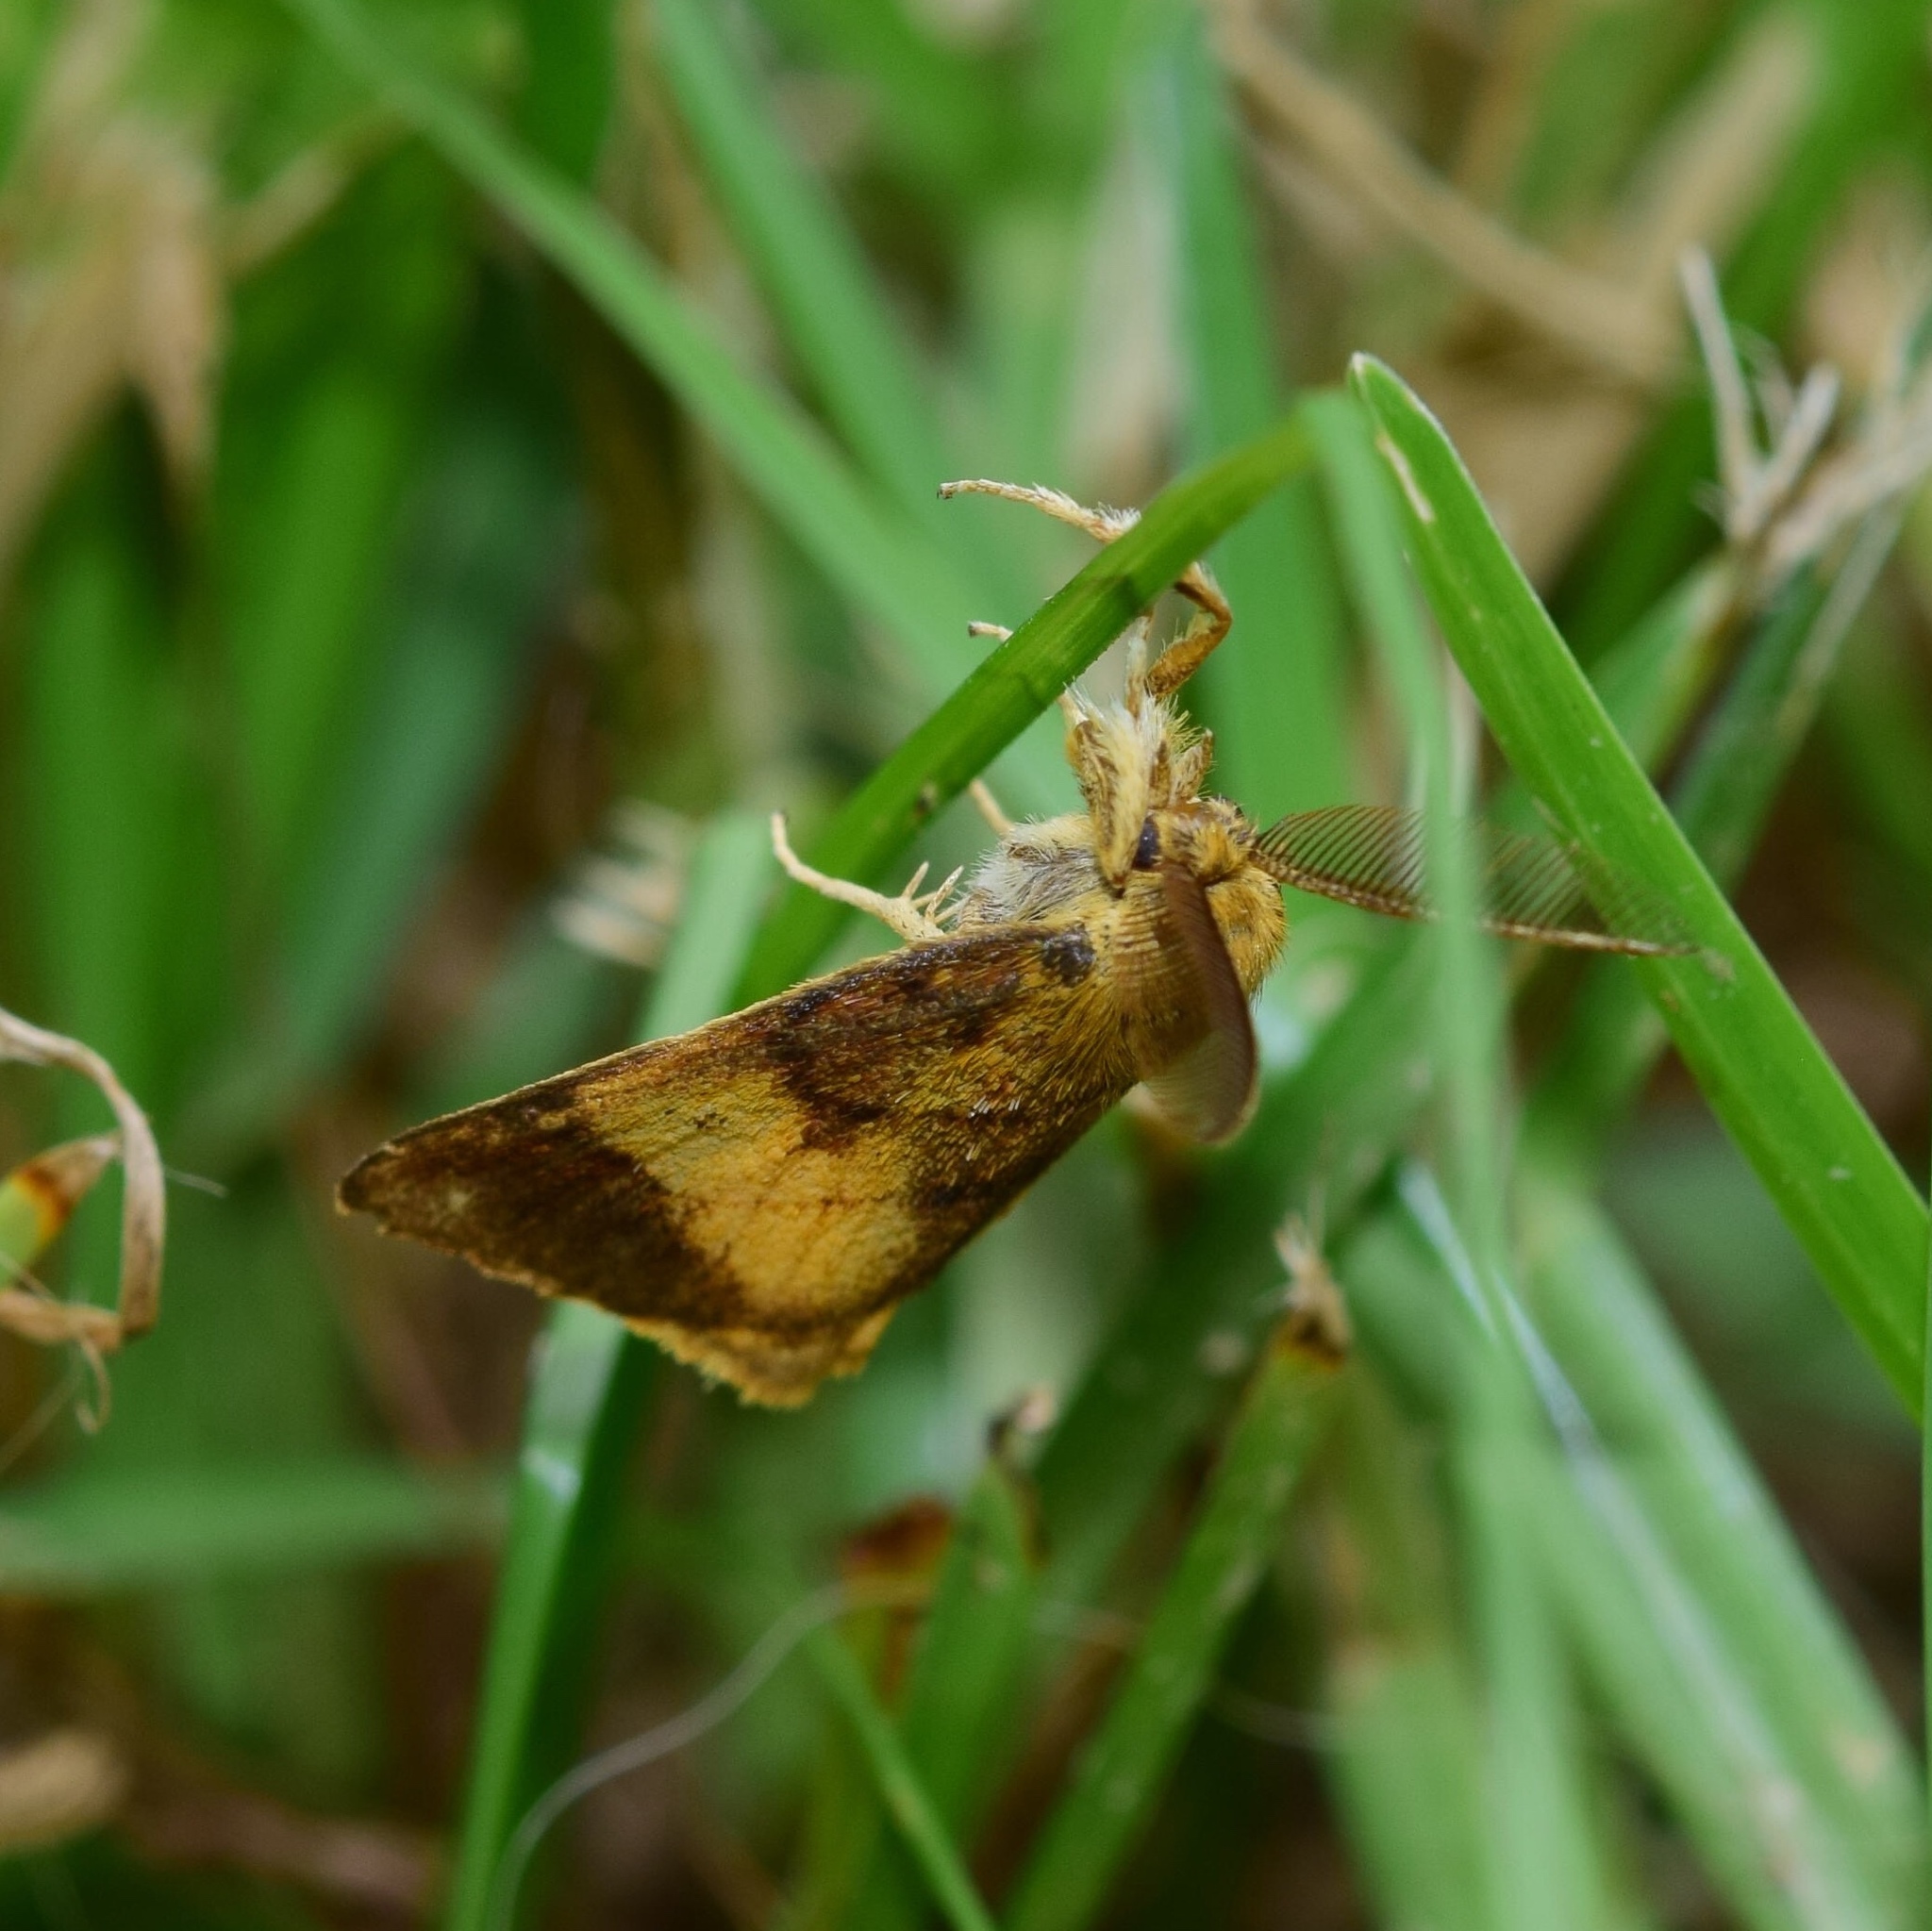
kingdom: Animalia
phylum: Arthropoda
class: Insecta
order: Lepidoptera
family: Erebidae
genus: Aroa
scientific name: Aroa discalis
